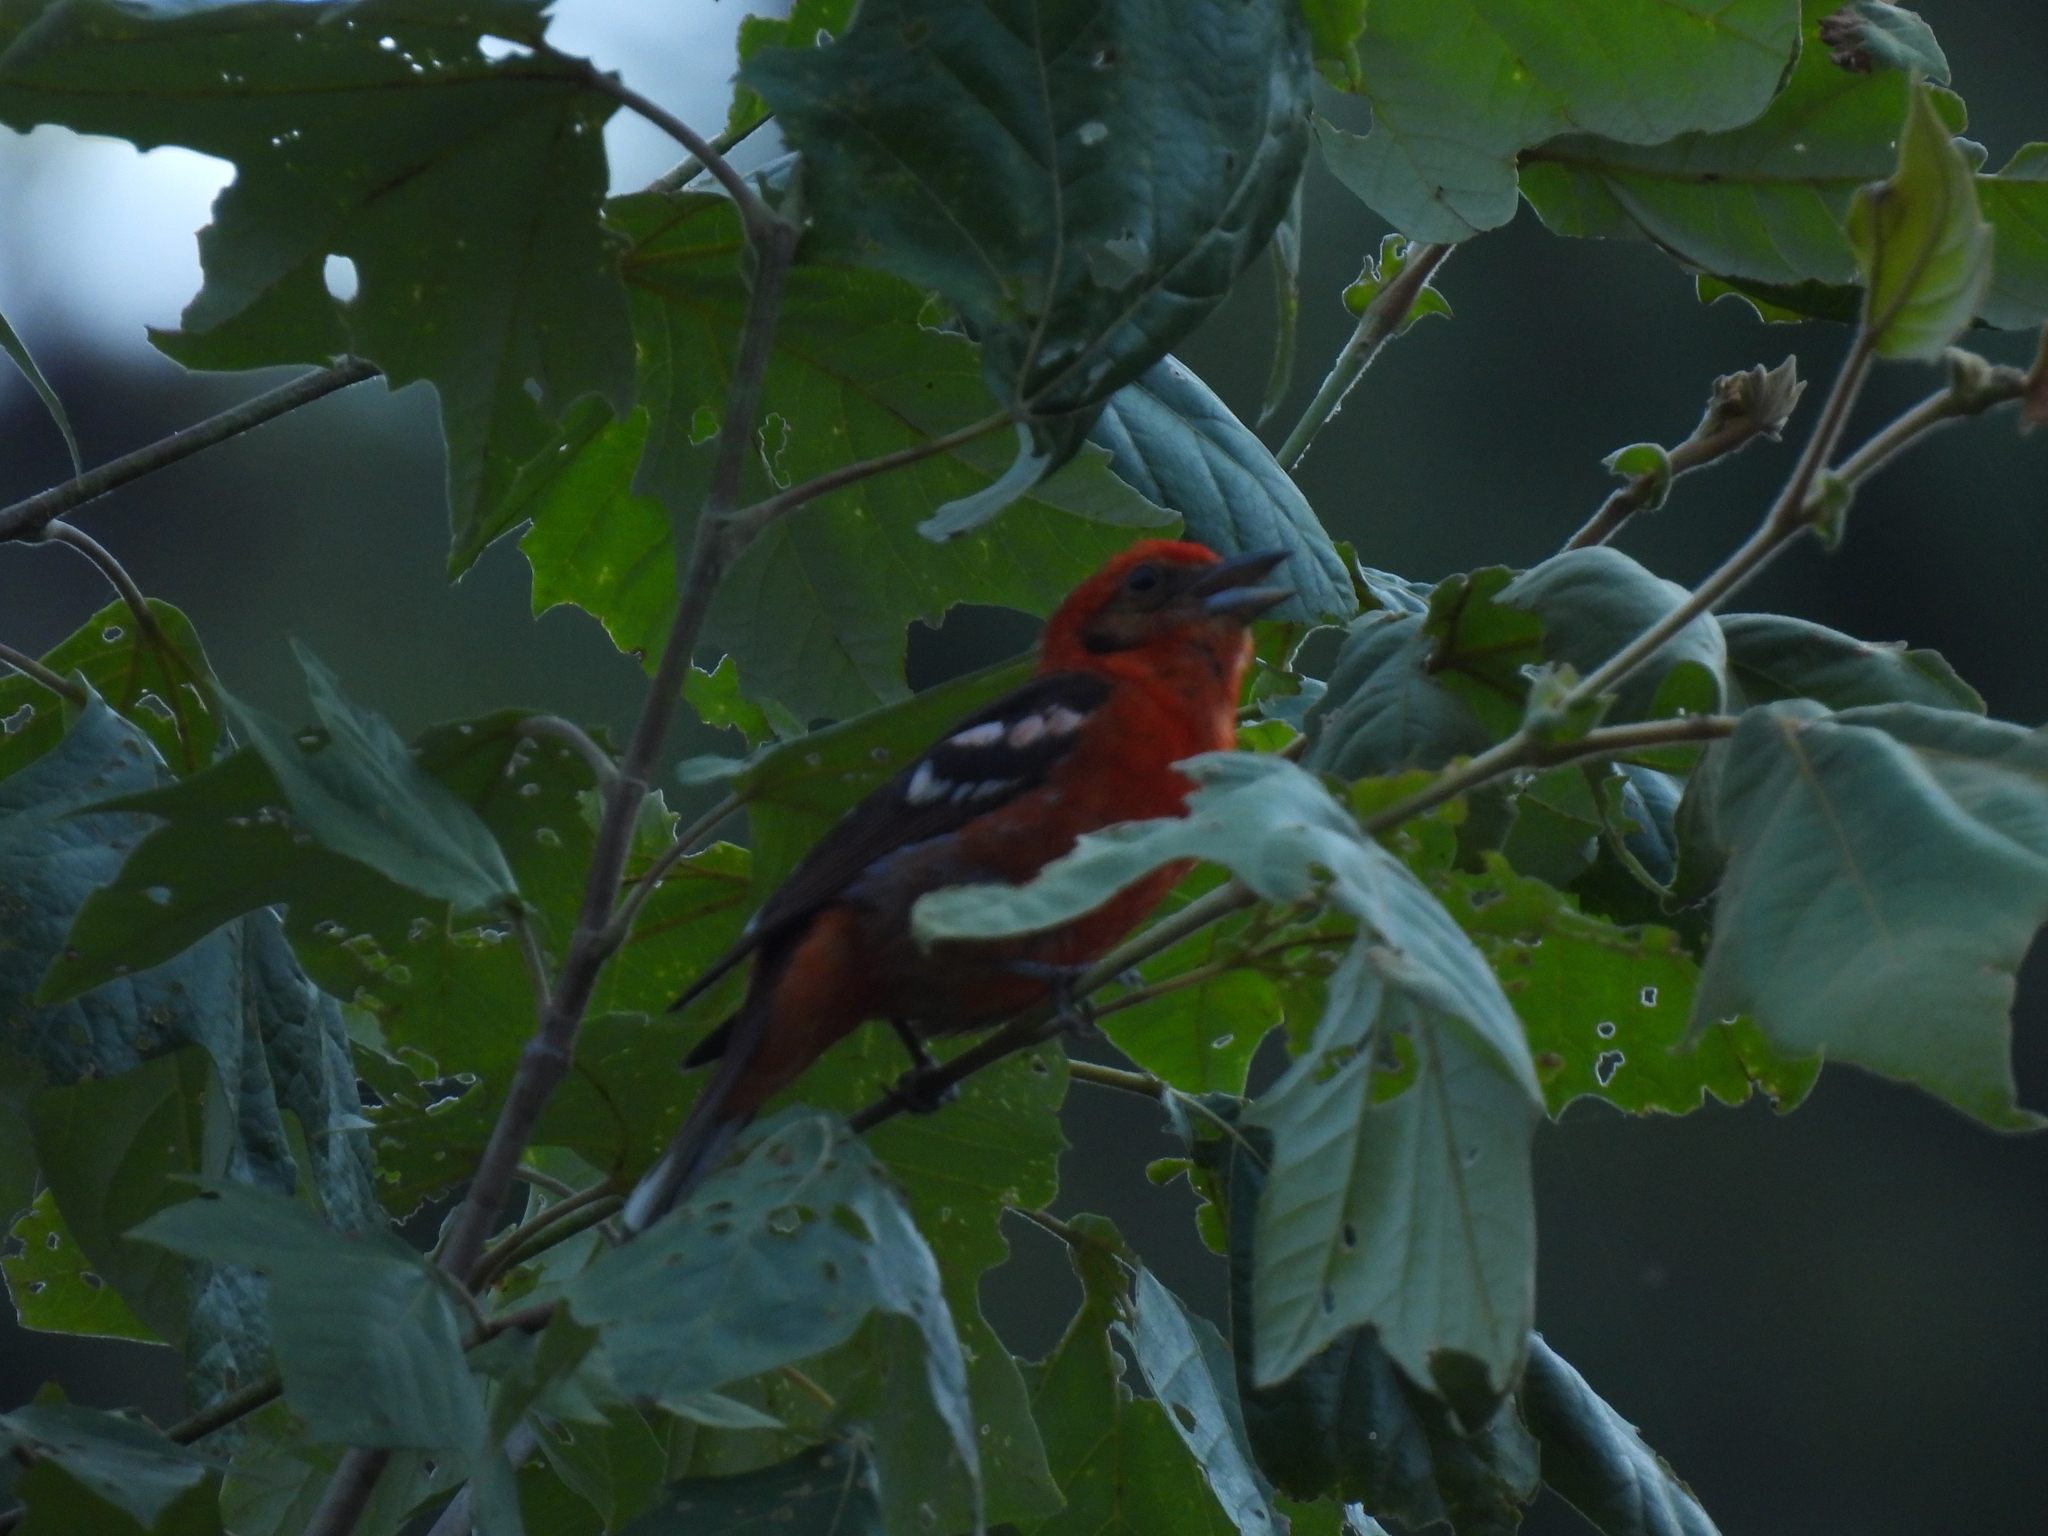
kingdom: Animalia
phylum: Chordata
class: Aves
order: Passeriformes
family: Cardinalidae
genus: Piranga
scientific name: Piranga bidentata
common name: Flame-colored tanager
